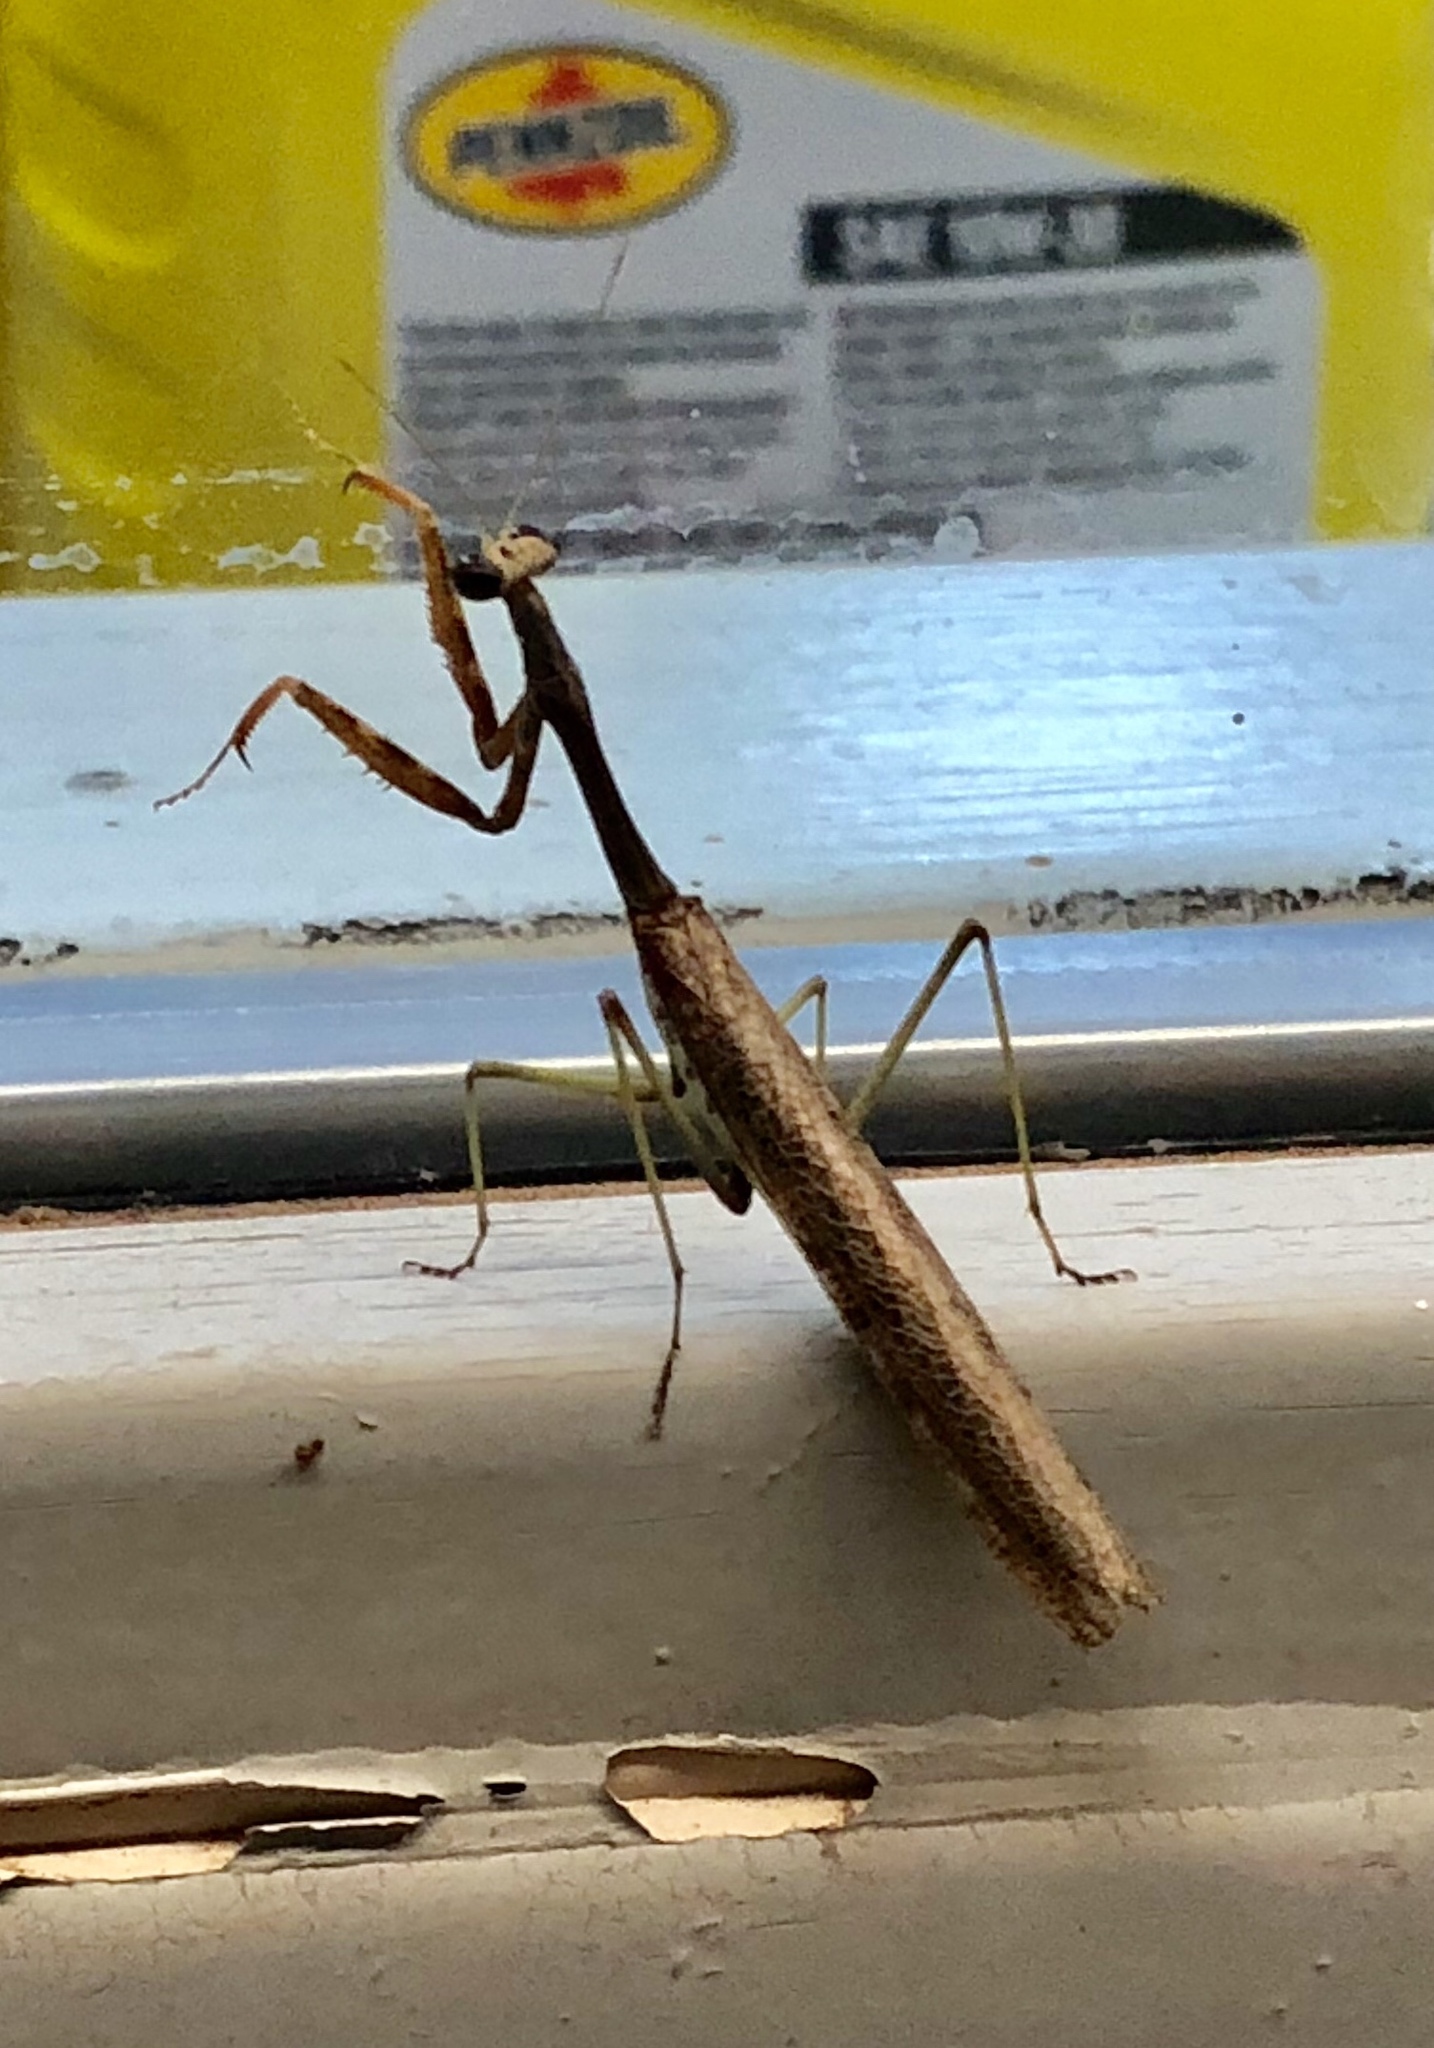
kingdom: Animalia
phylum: Arthropoda
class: Insecta
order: Mantodea
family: Mantidae
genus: Stagmomantis
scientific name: Stagmomantis californica
